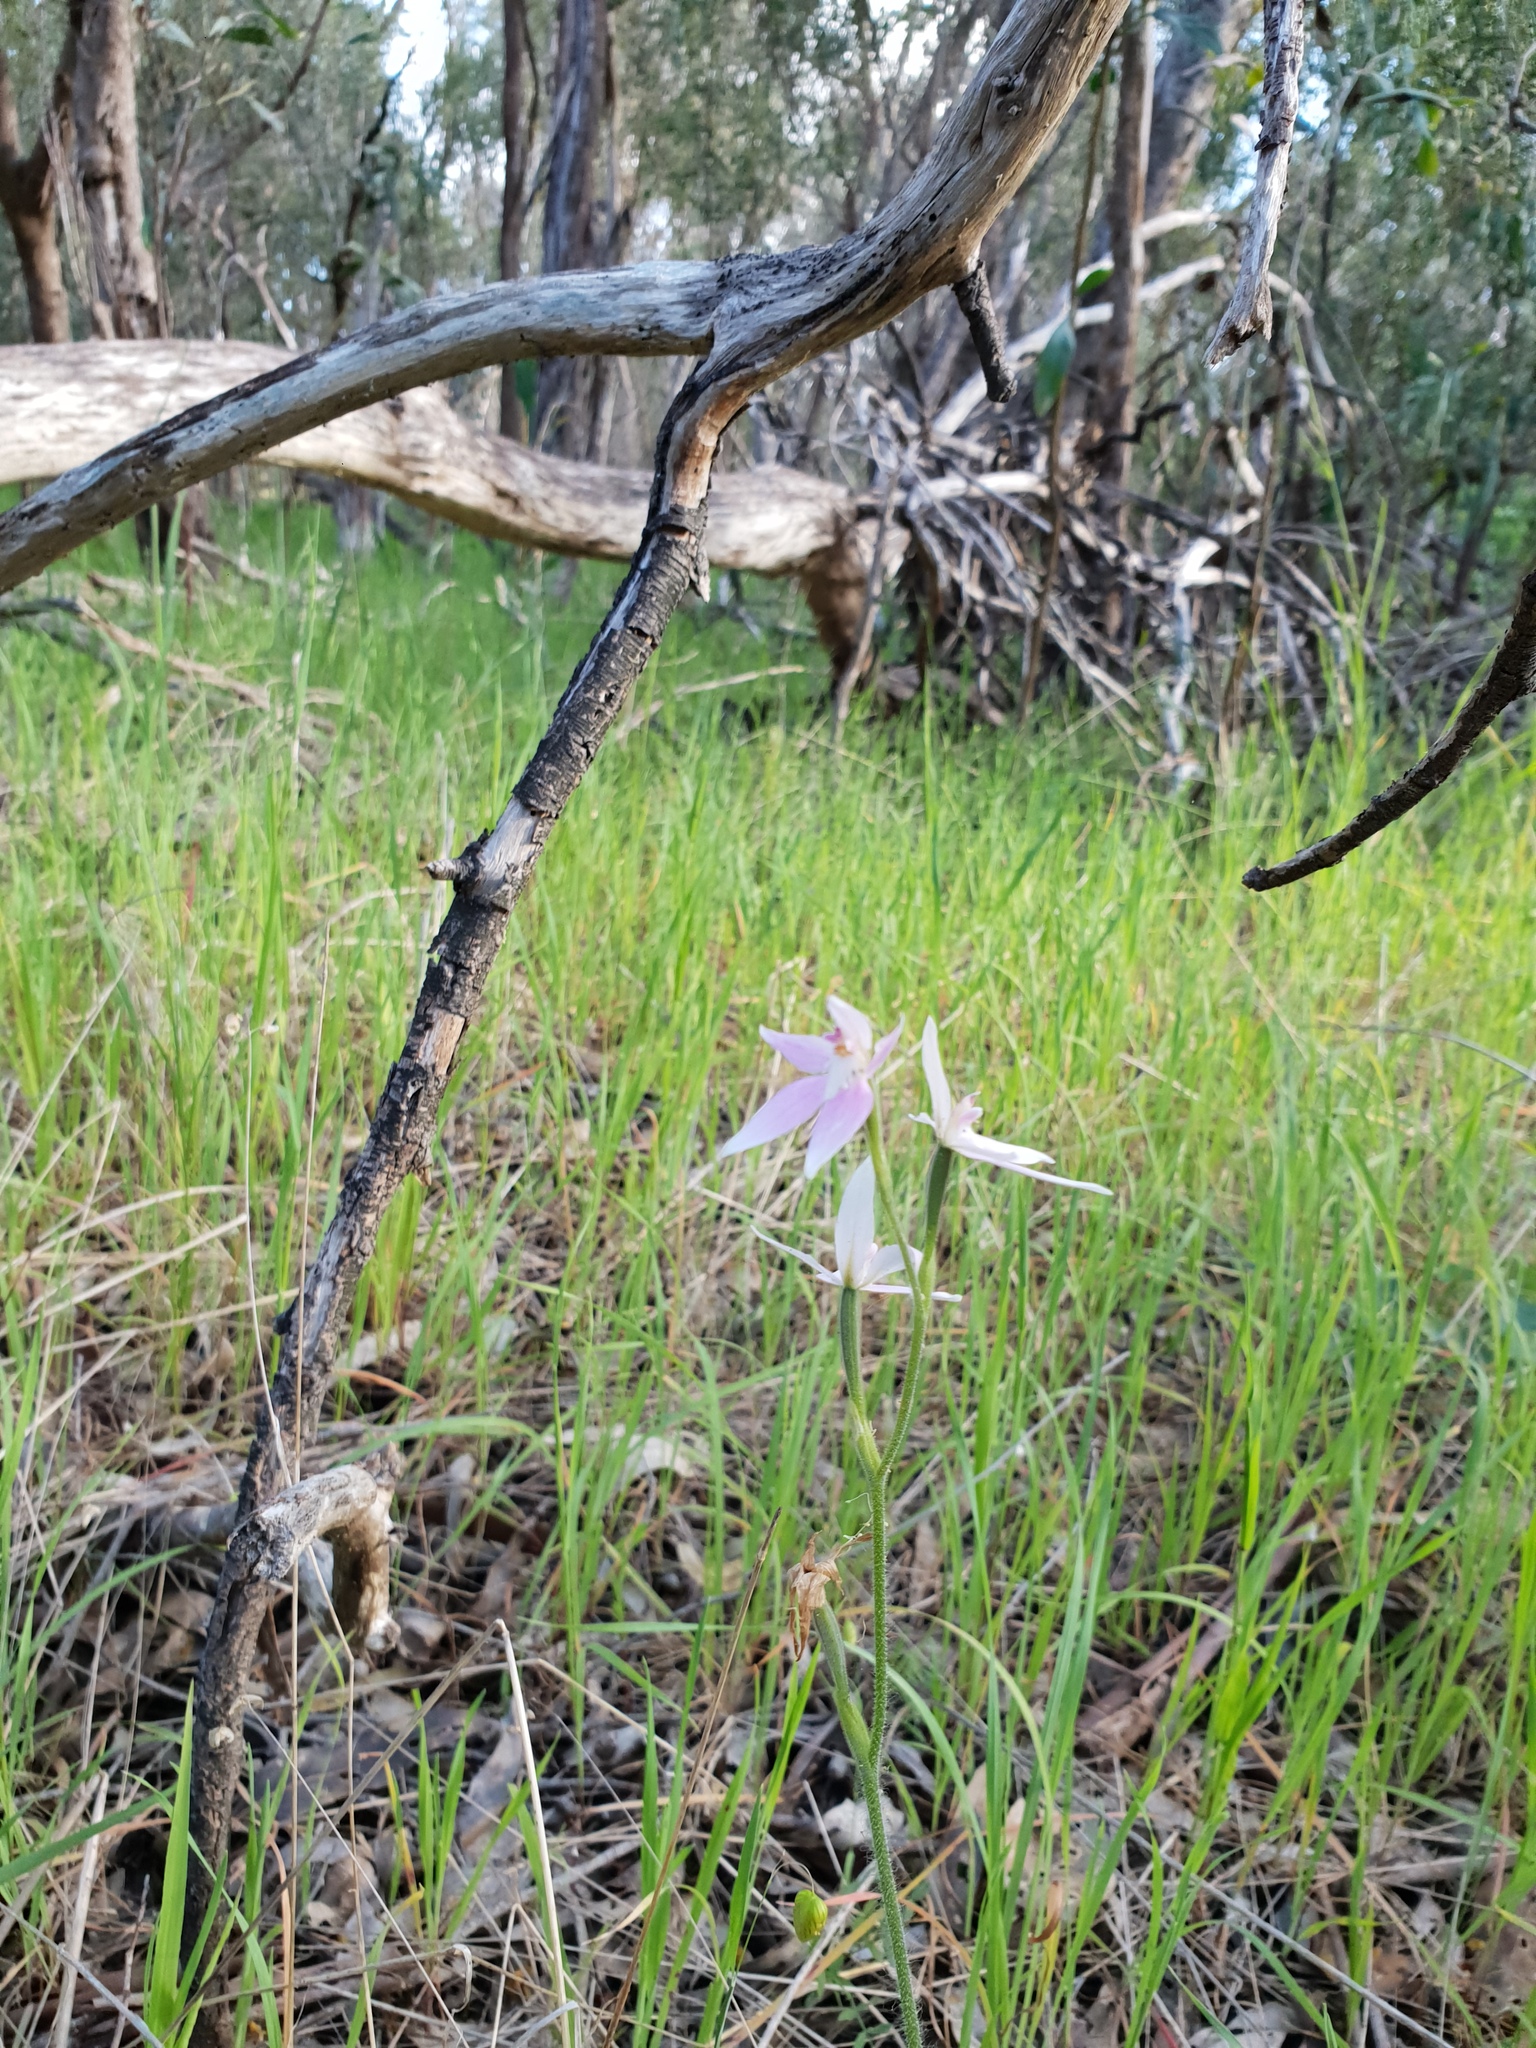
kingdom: Plantae
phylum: Tracheophyta
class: Liliopsida
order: Asparagales
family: Orchidaceae
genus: Caladenia
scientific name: Caladenia latifolia
